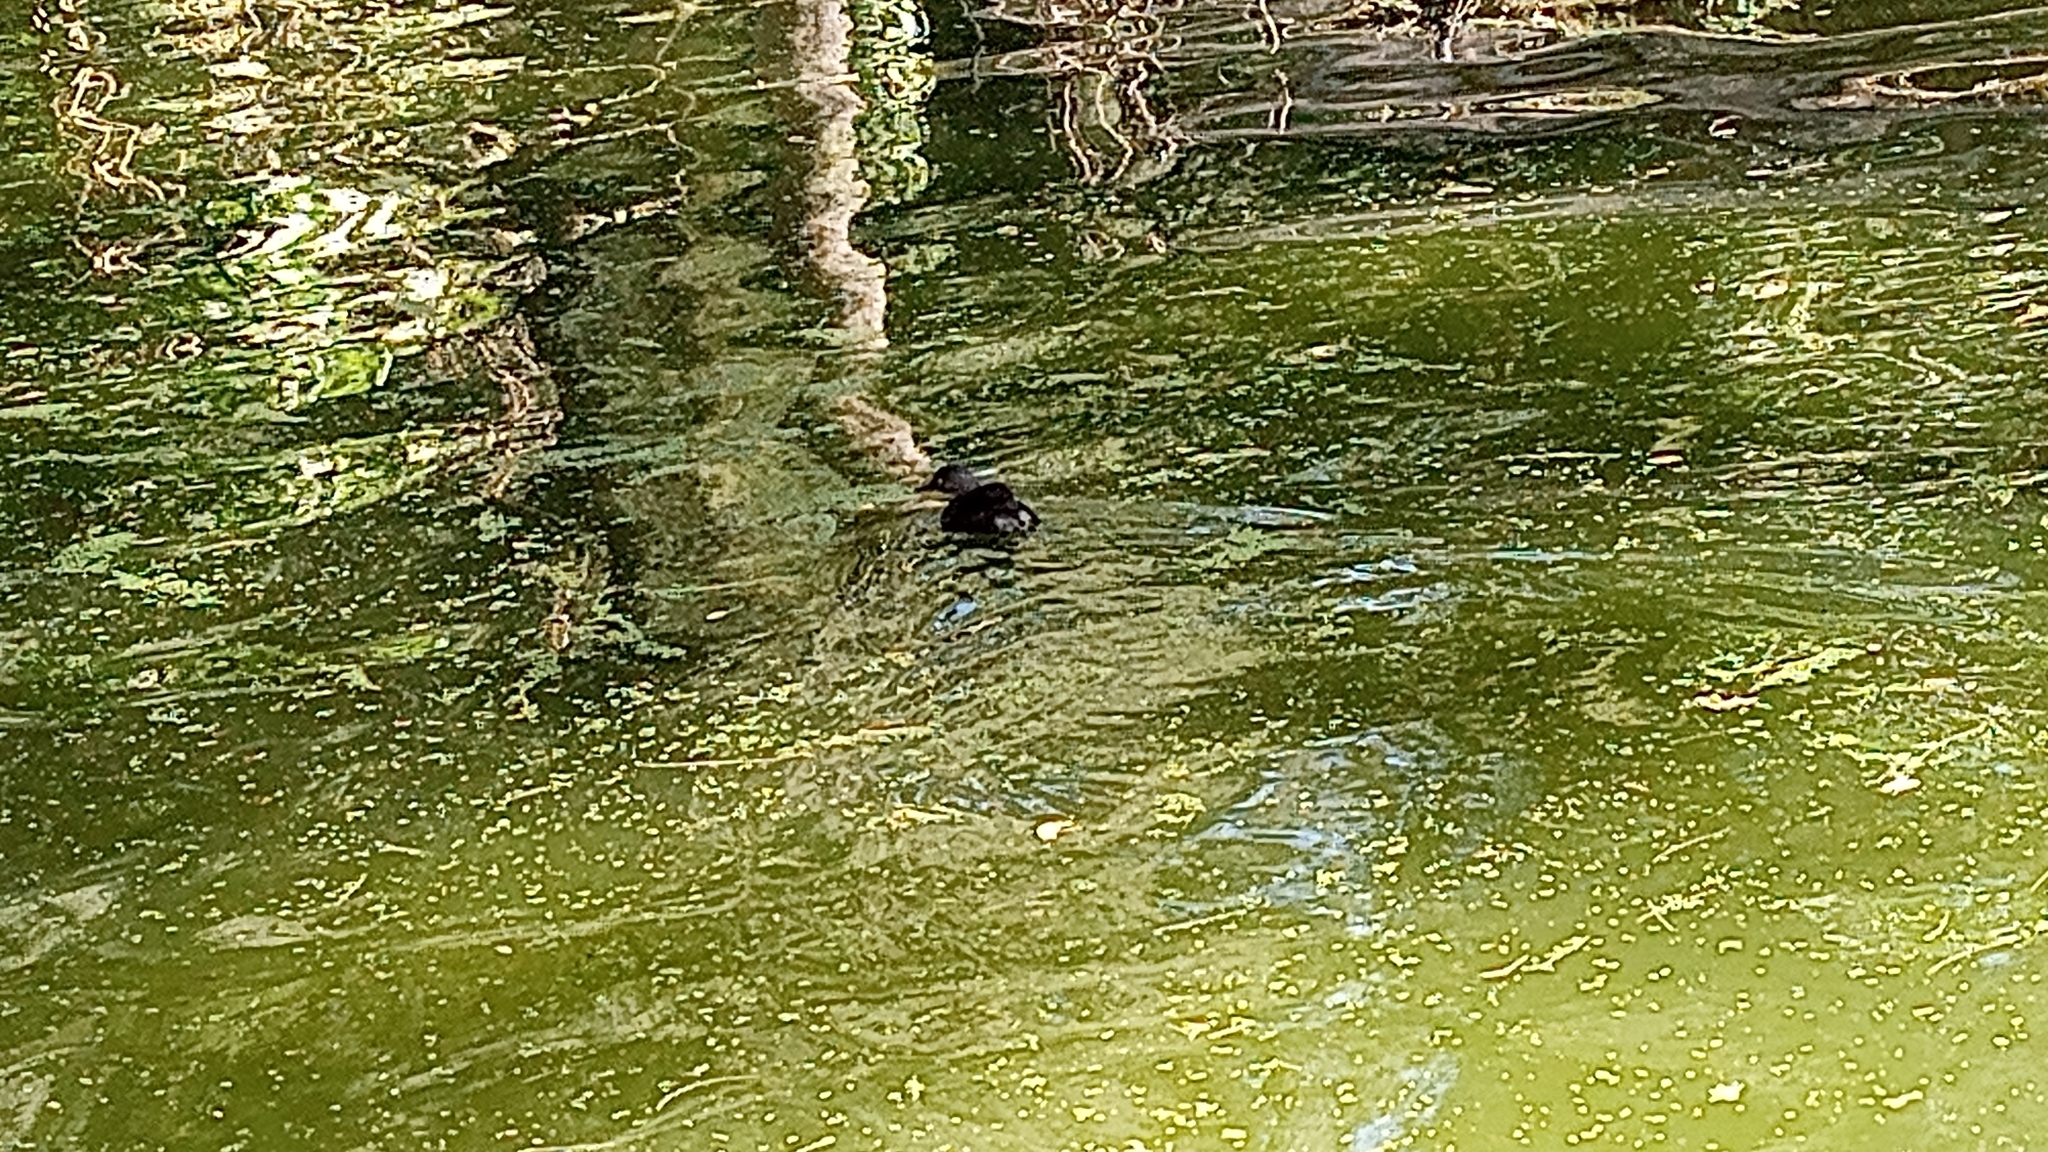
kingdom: Animalia
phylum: Chordata
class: Aves
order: Podicipediformes
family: Podicipedidae
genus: Tachybaptus
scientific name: Tachybaptus dominicus
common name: Least grebe
